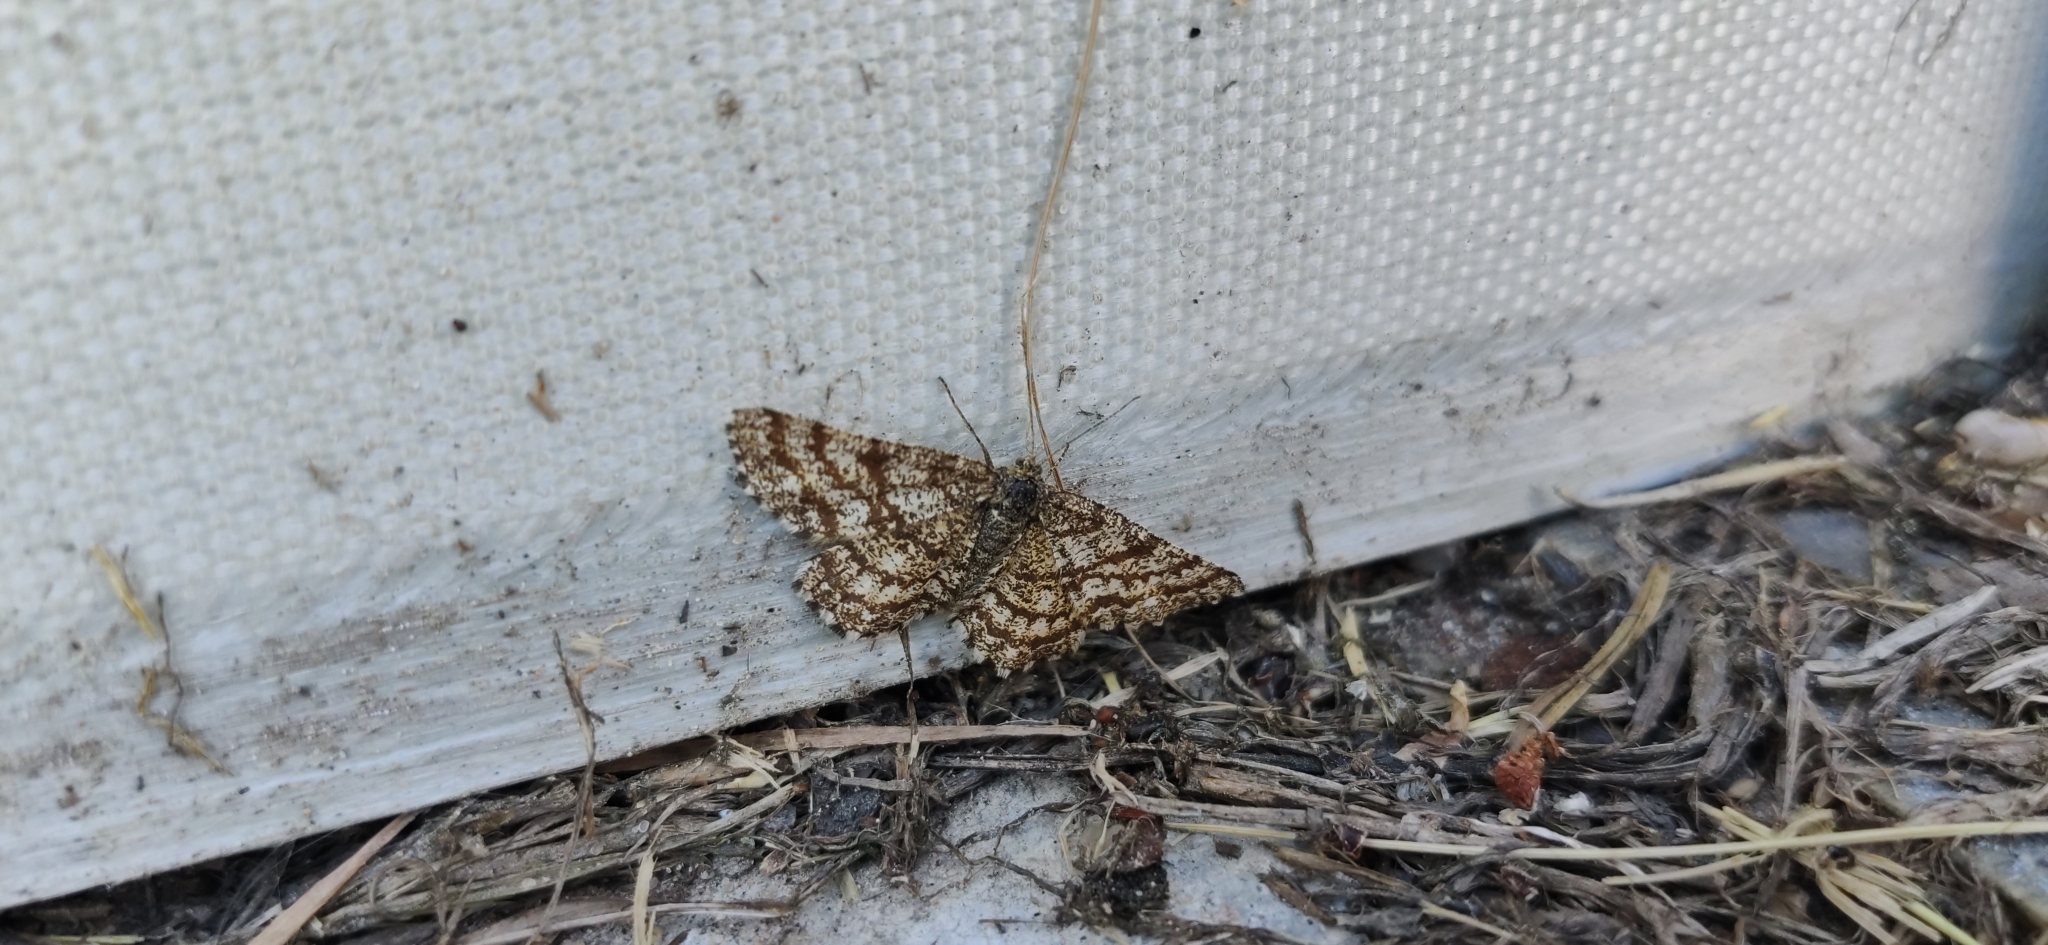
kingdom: Animalia
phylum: Arthropoda
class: Insecta
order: Lepidoptera
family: Geometridae
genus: Ematurga
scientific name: Ematurga atomaria
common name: Common heath
